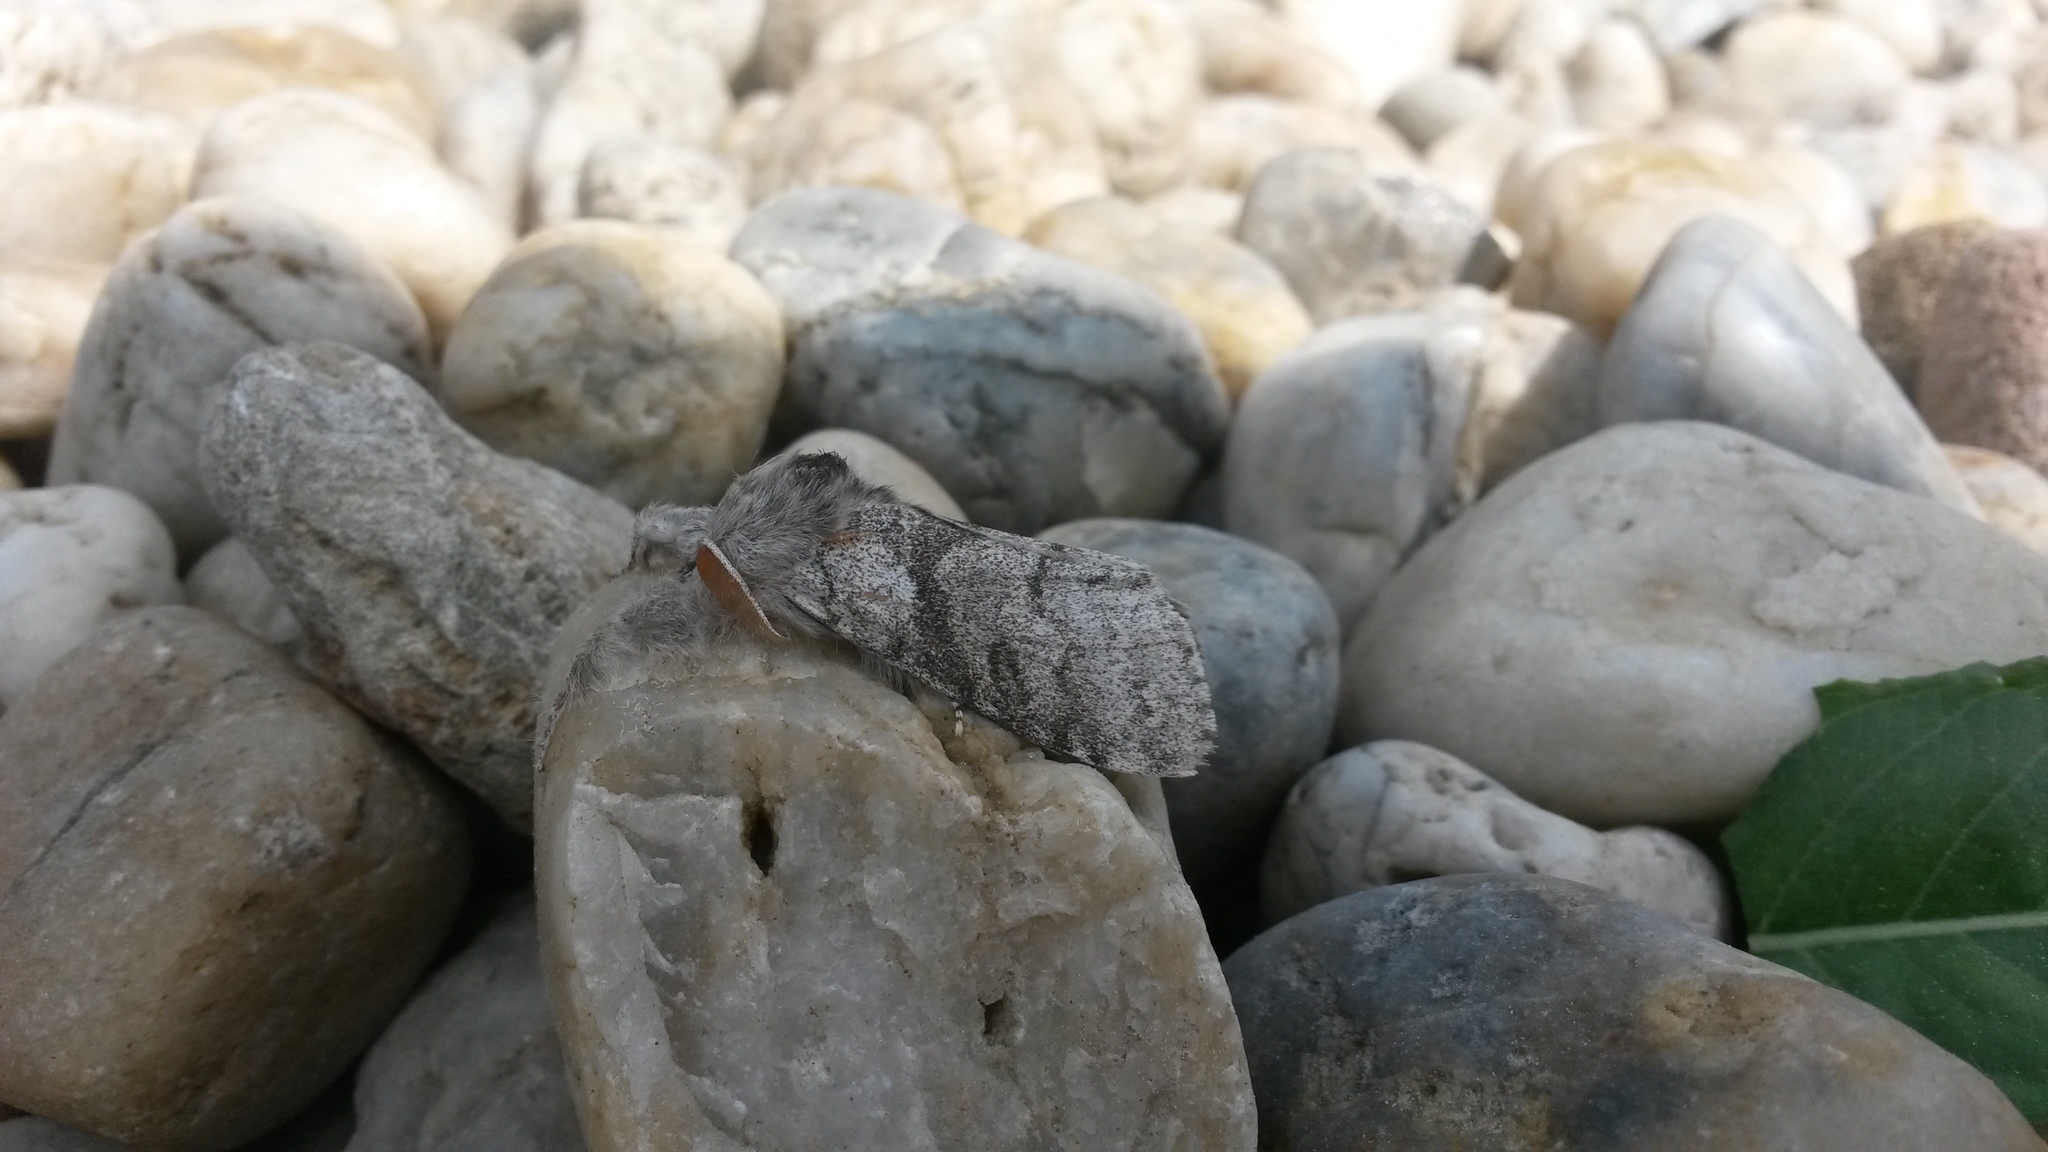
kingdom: Animalia
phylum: Arthropoda
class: Insecta
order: Lepidoptera
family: Erebidae
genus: Calliteara
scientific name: Calliteara pudibunda
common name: Pale tussock
